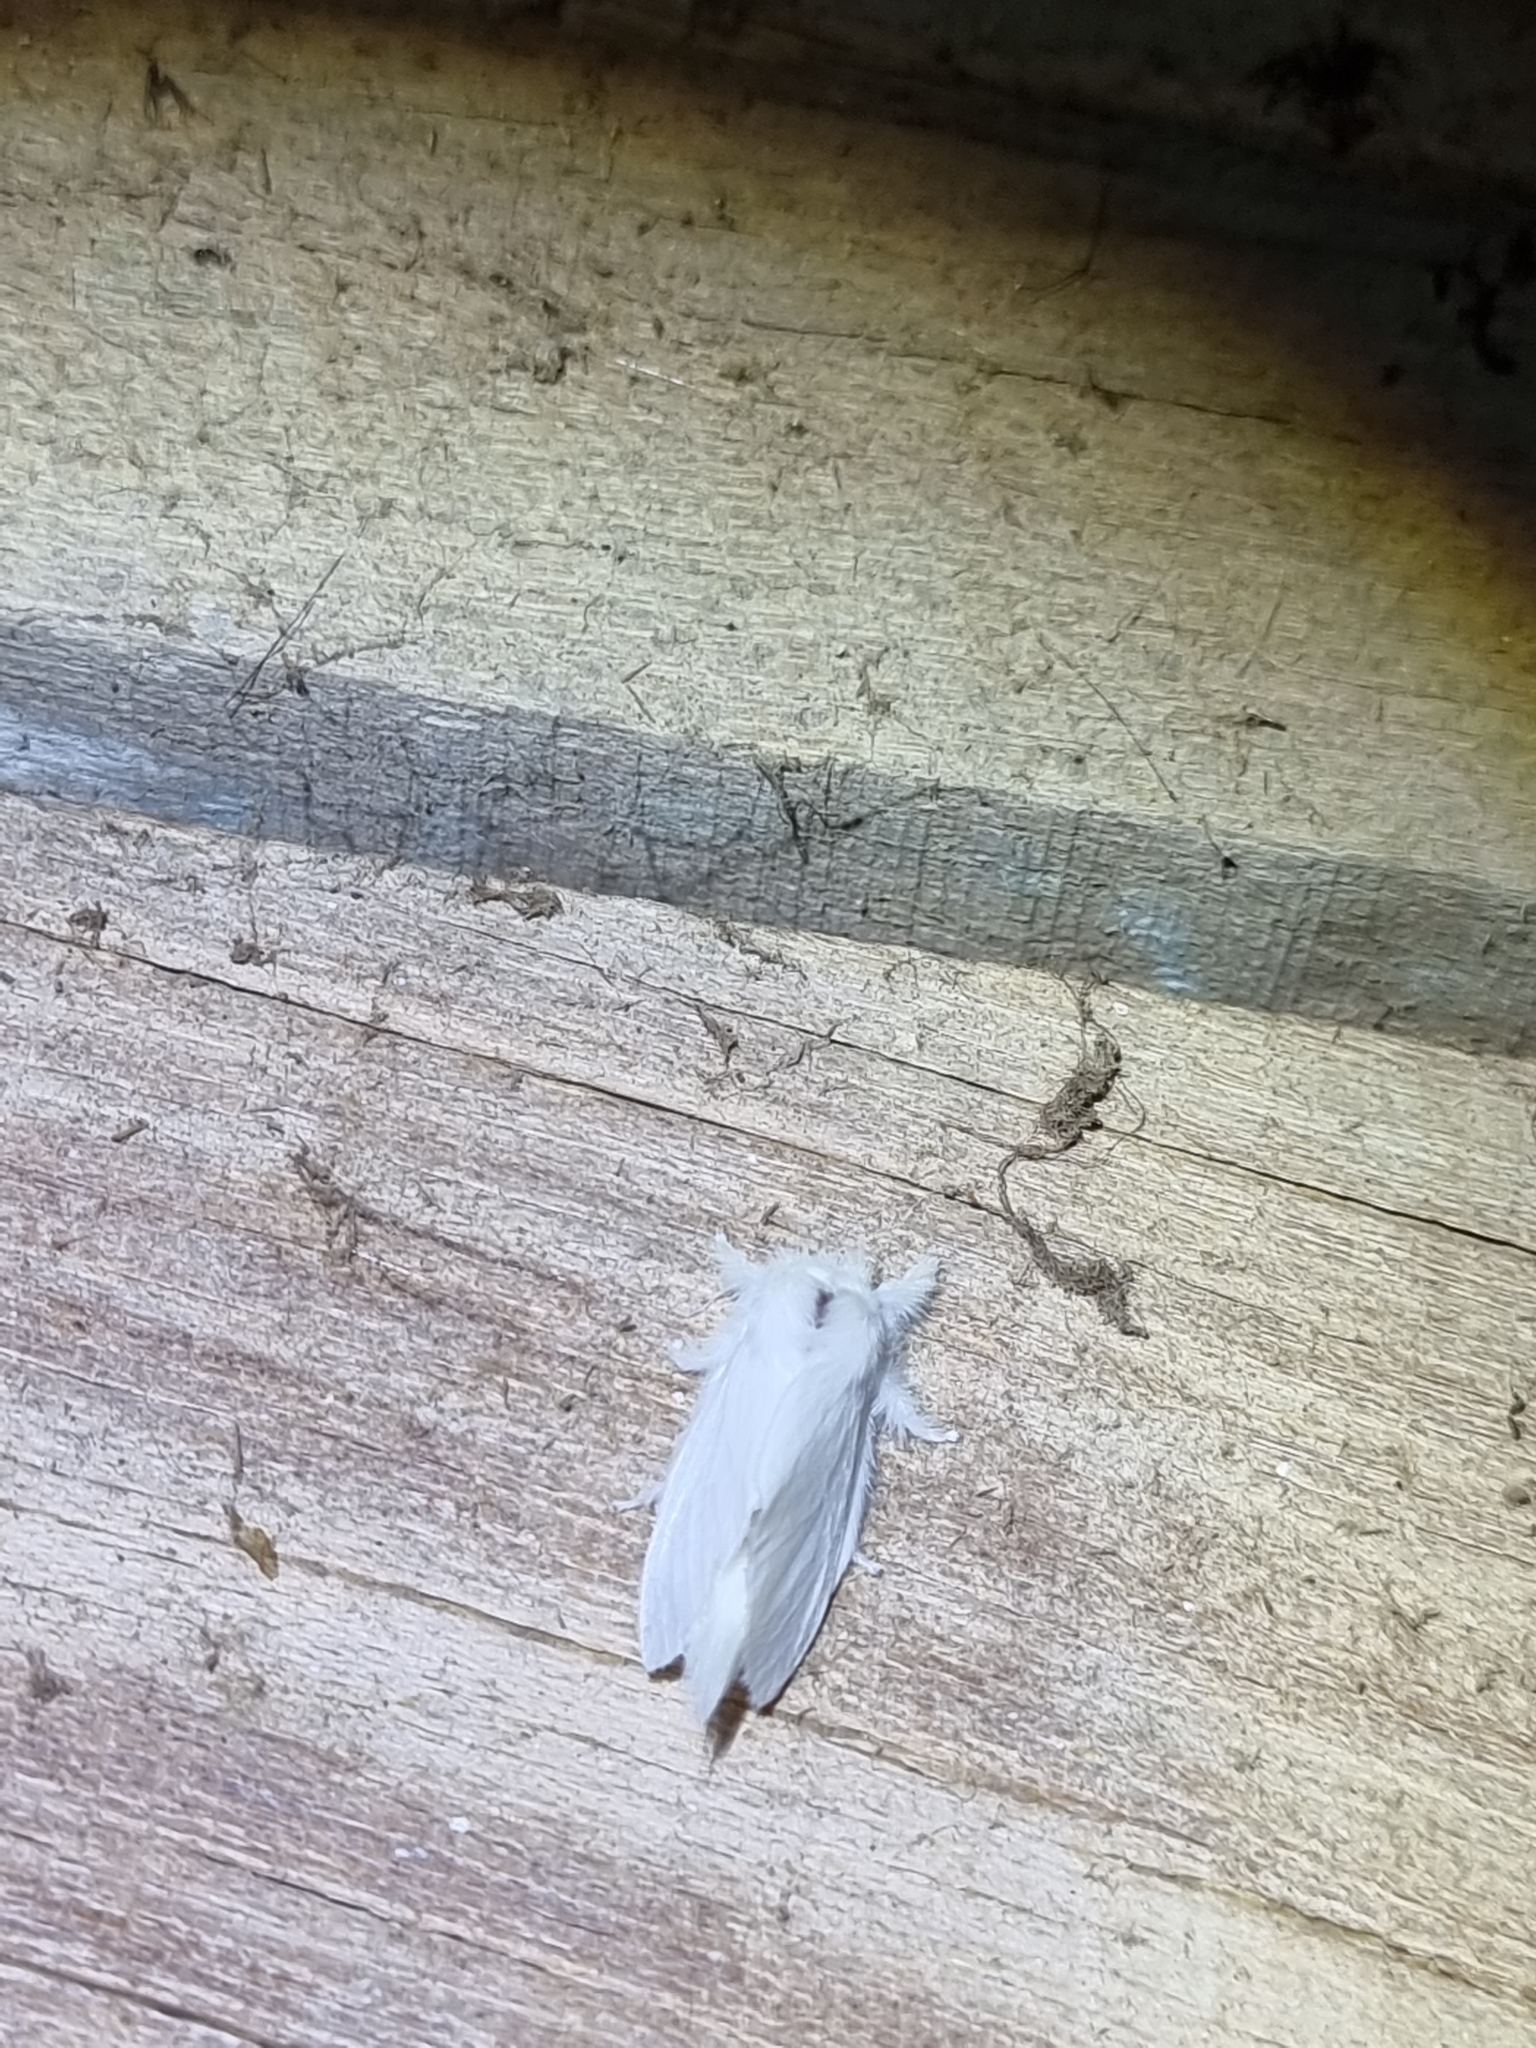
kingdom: Animalia
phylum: Arthropoda
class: Insecta
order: Lepidoptera
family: Notodontidae
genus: Trichiocercus
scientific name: Trichiocercus sparshalli
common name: Long-tailed satin
